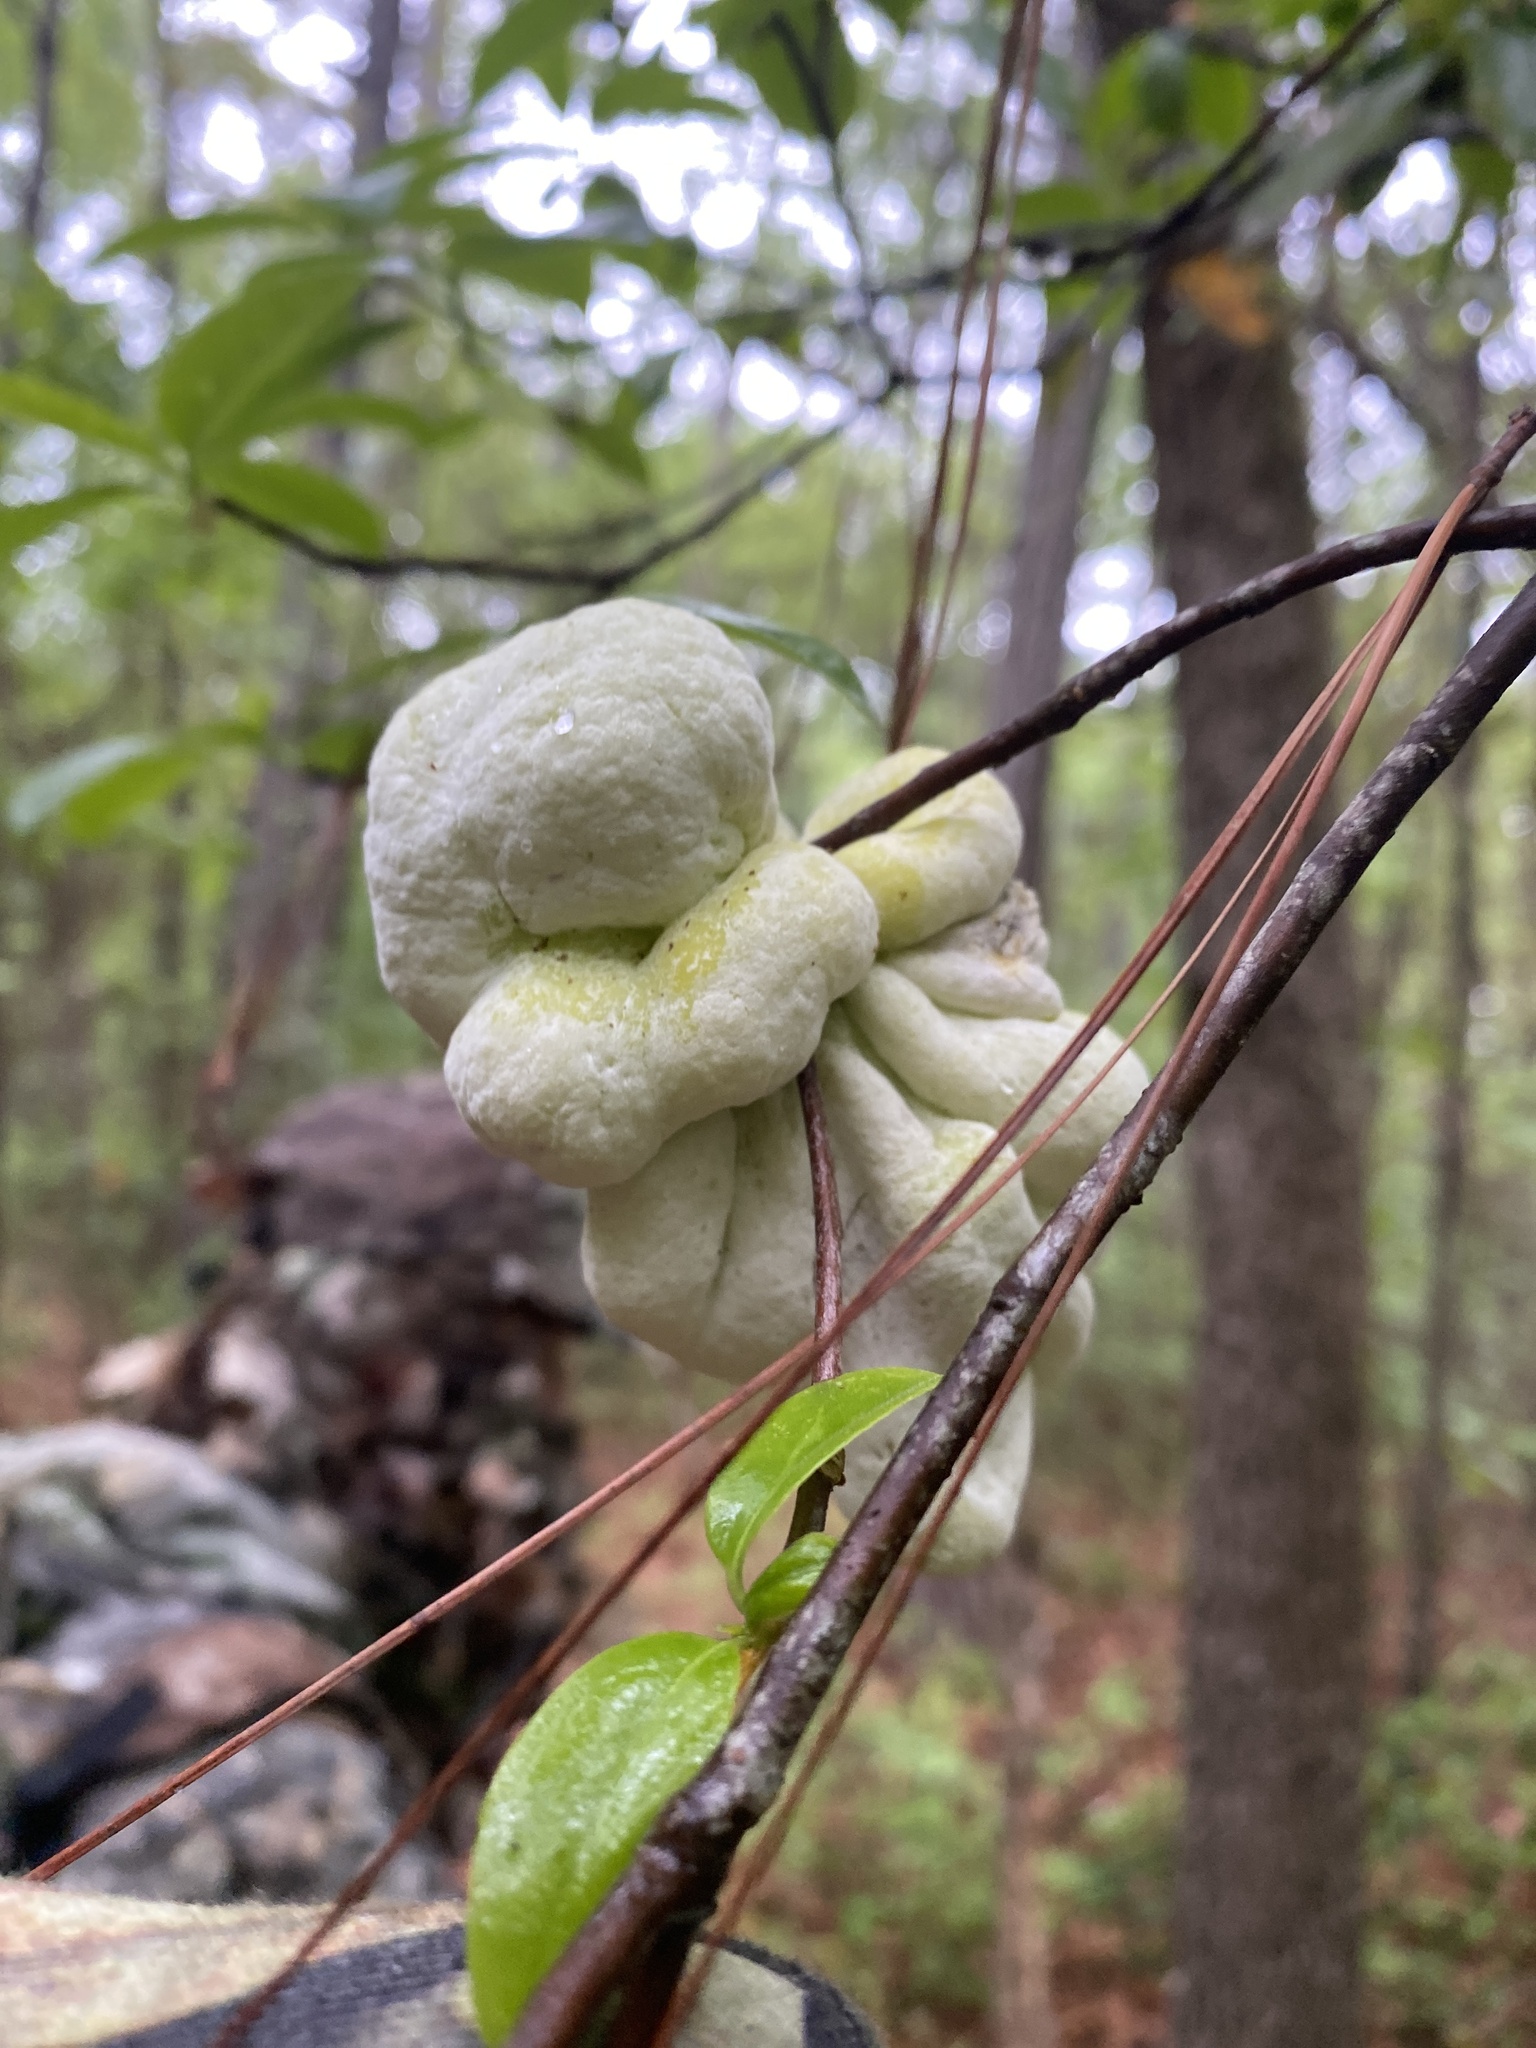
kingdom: Fungi
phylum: Basidiomycota
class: Exobasidiomycetes
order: Exobasidiales
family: Exobasidiaceae
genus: Exobasidium
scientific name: Exobasidium symploci
